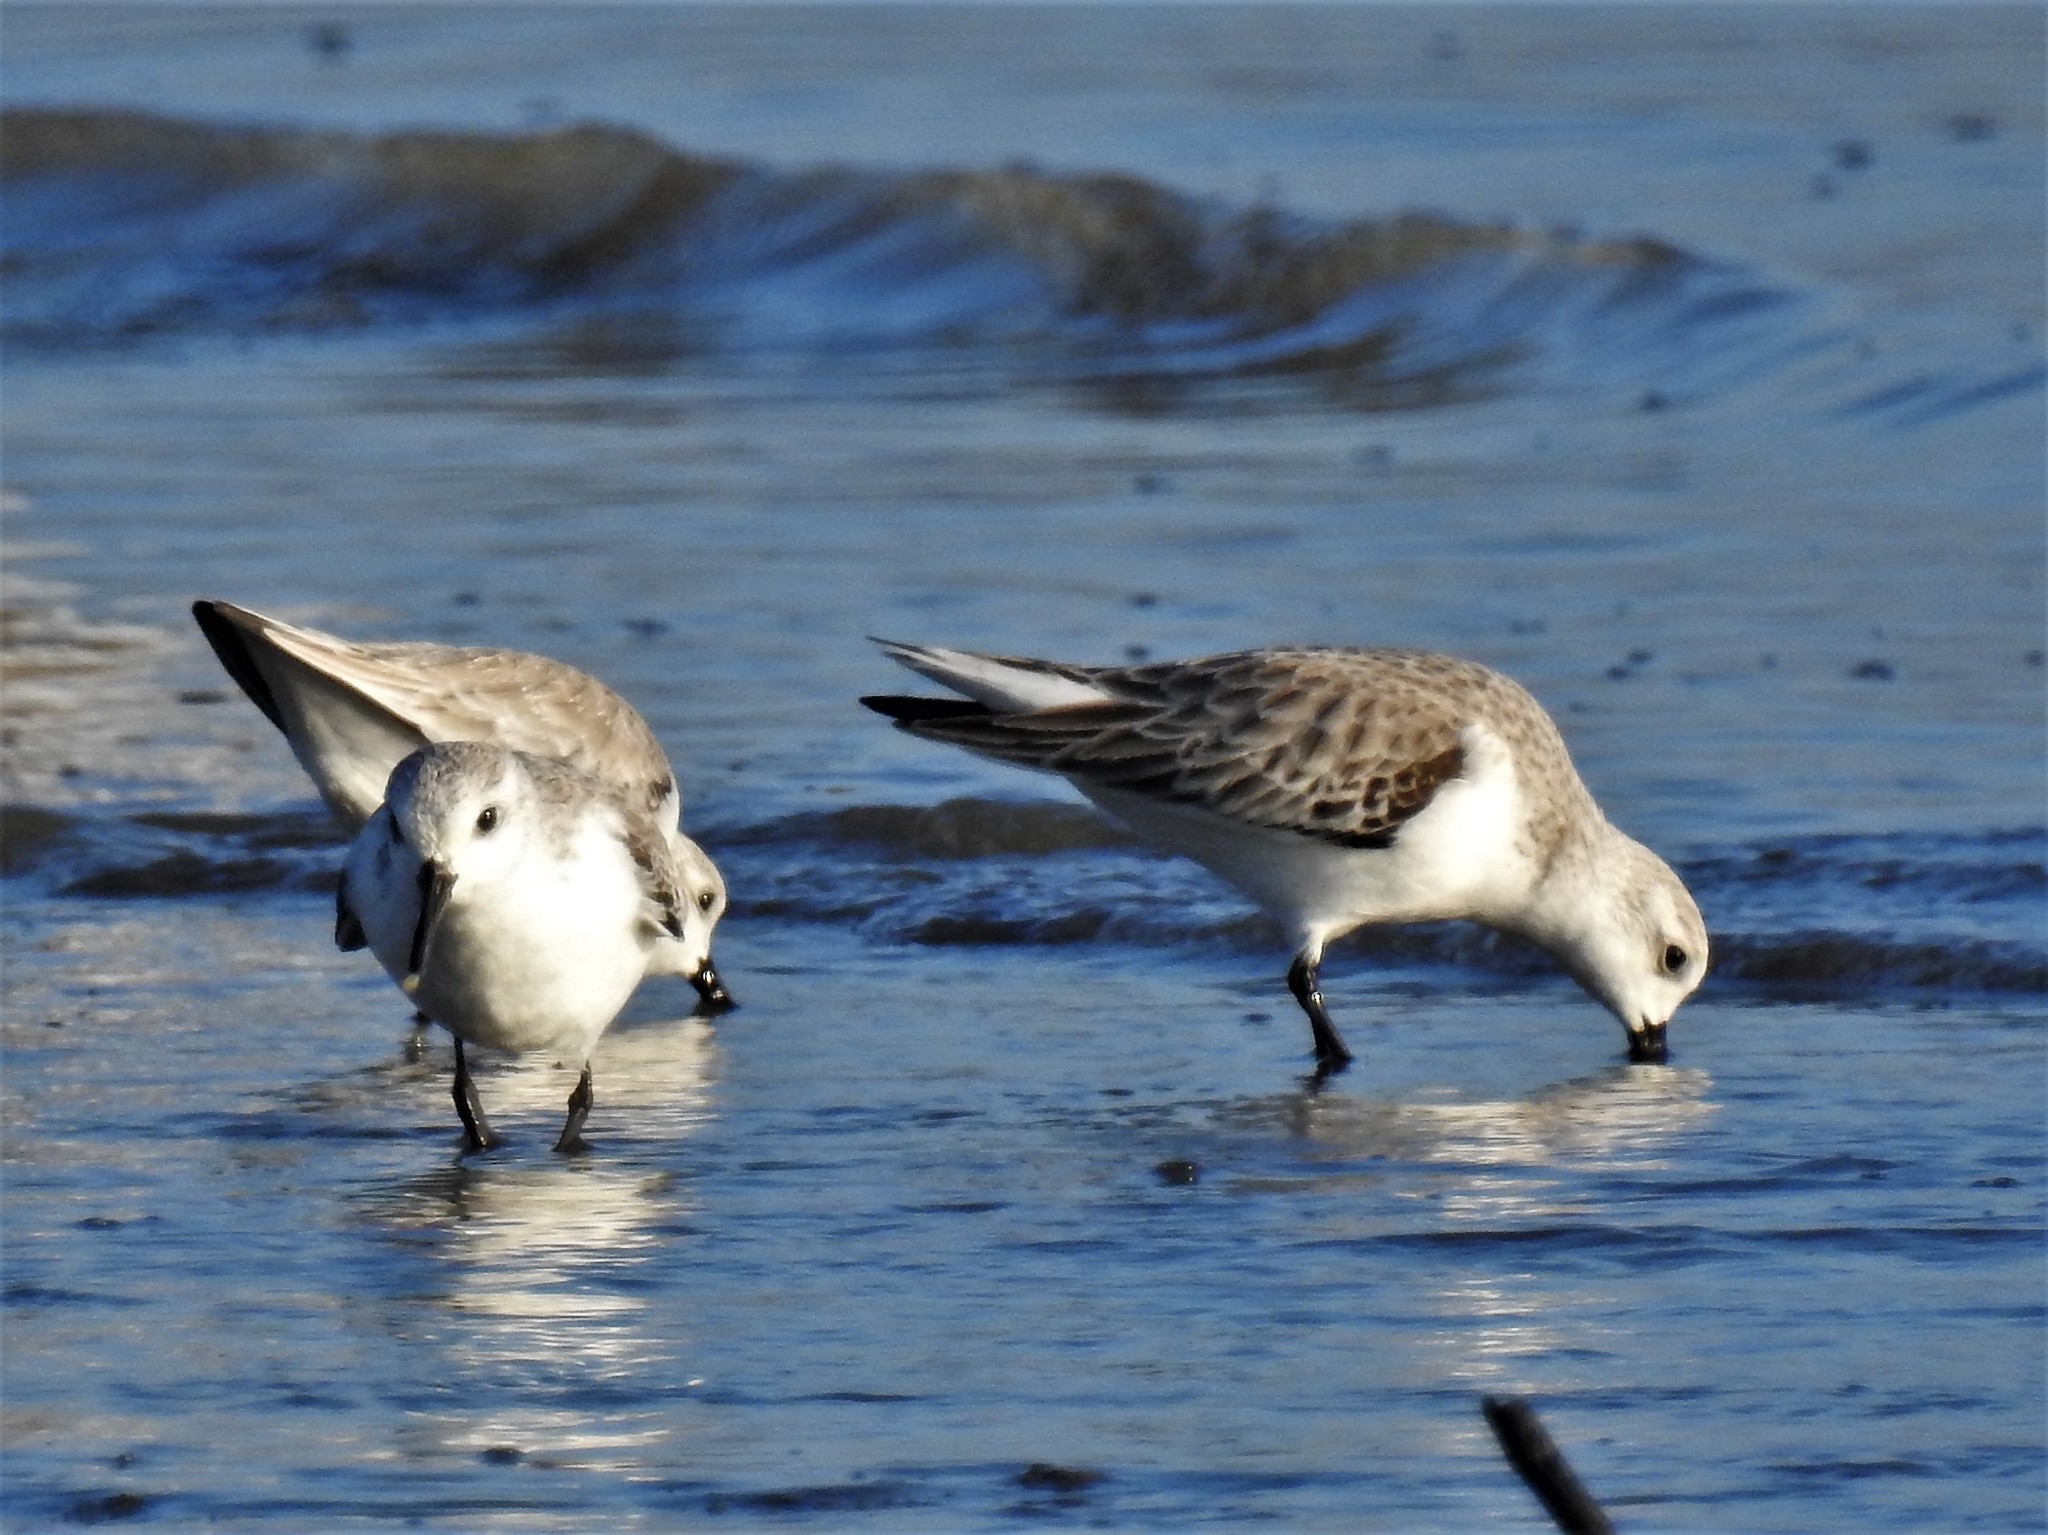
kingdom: Animalia
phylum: Chordata
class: Aves
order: Charadriiformes
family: Scolopacidae
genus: Calidris
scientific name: Calidris alba
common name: Sanderling
